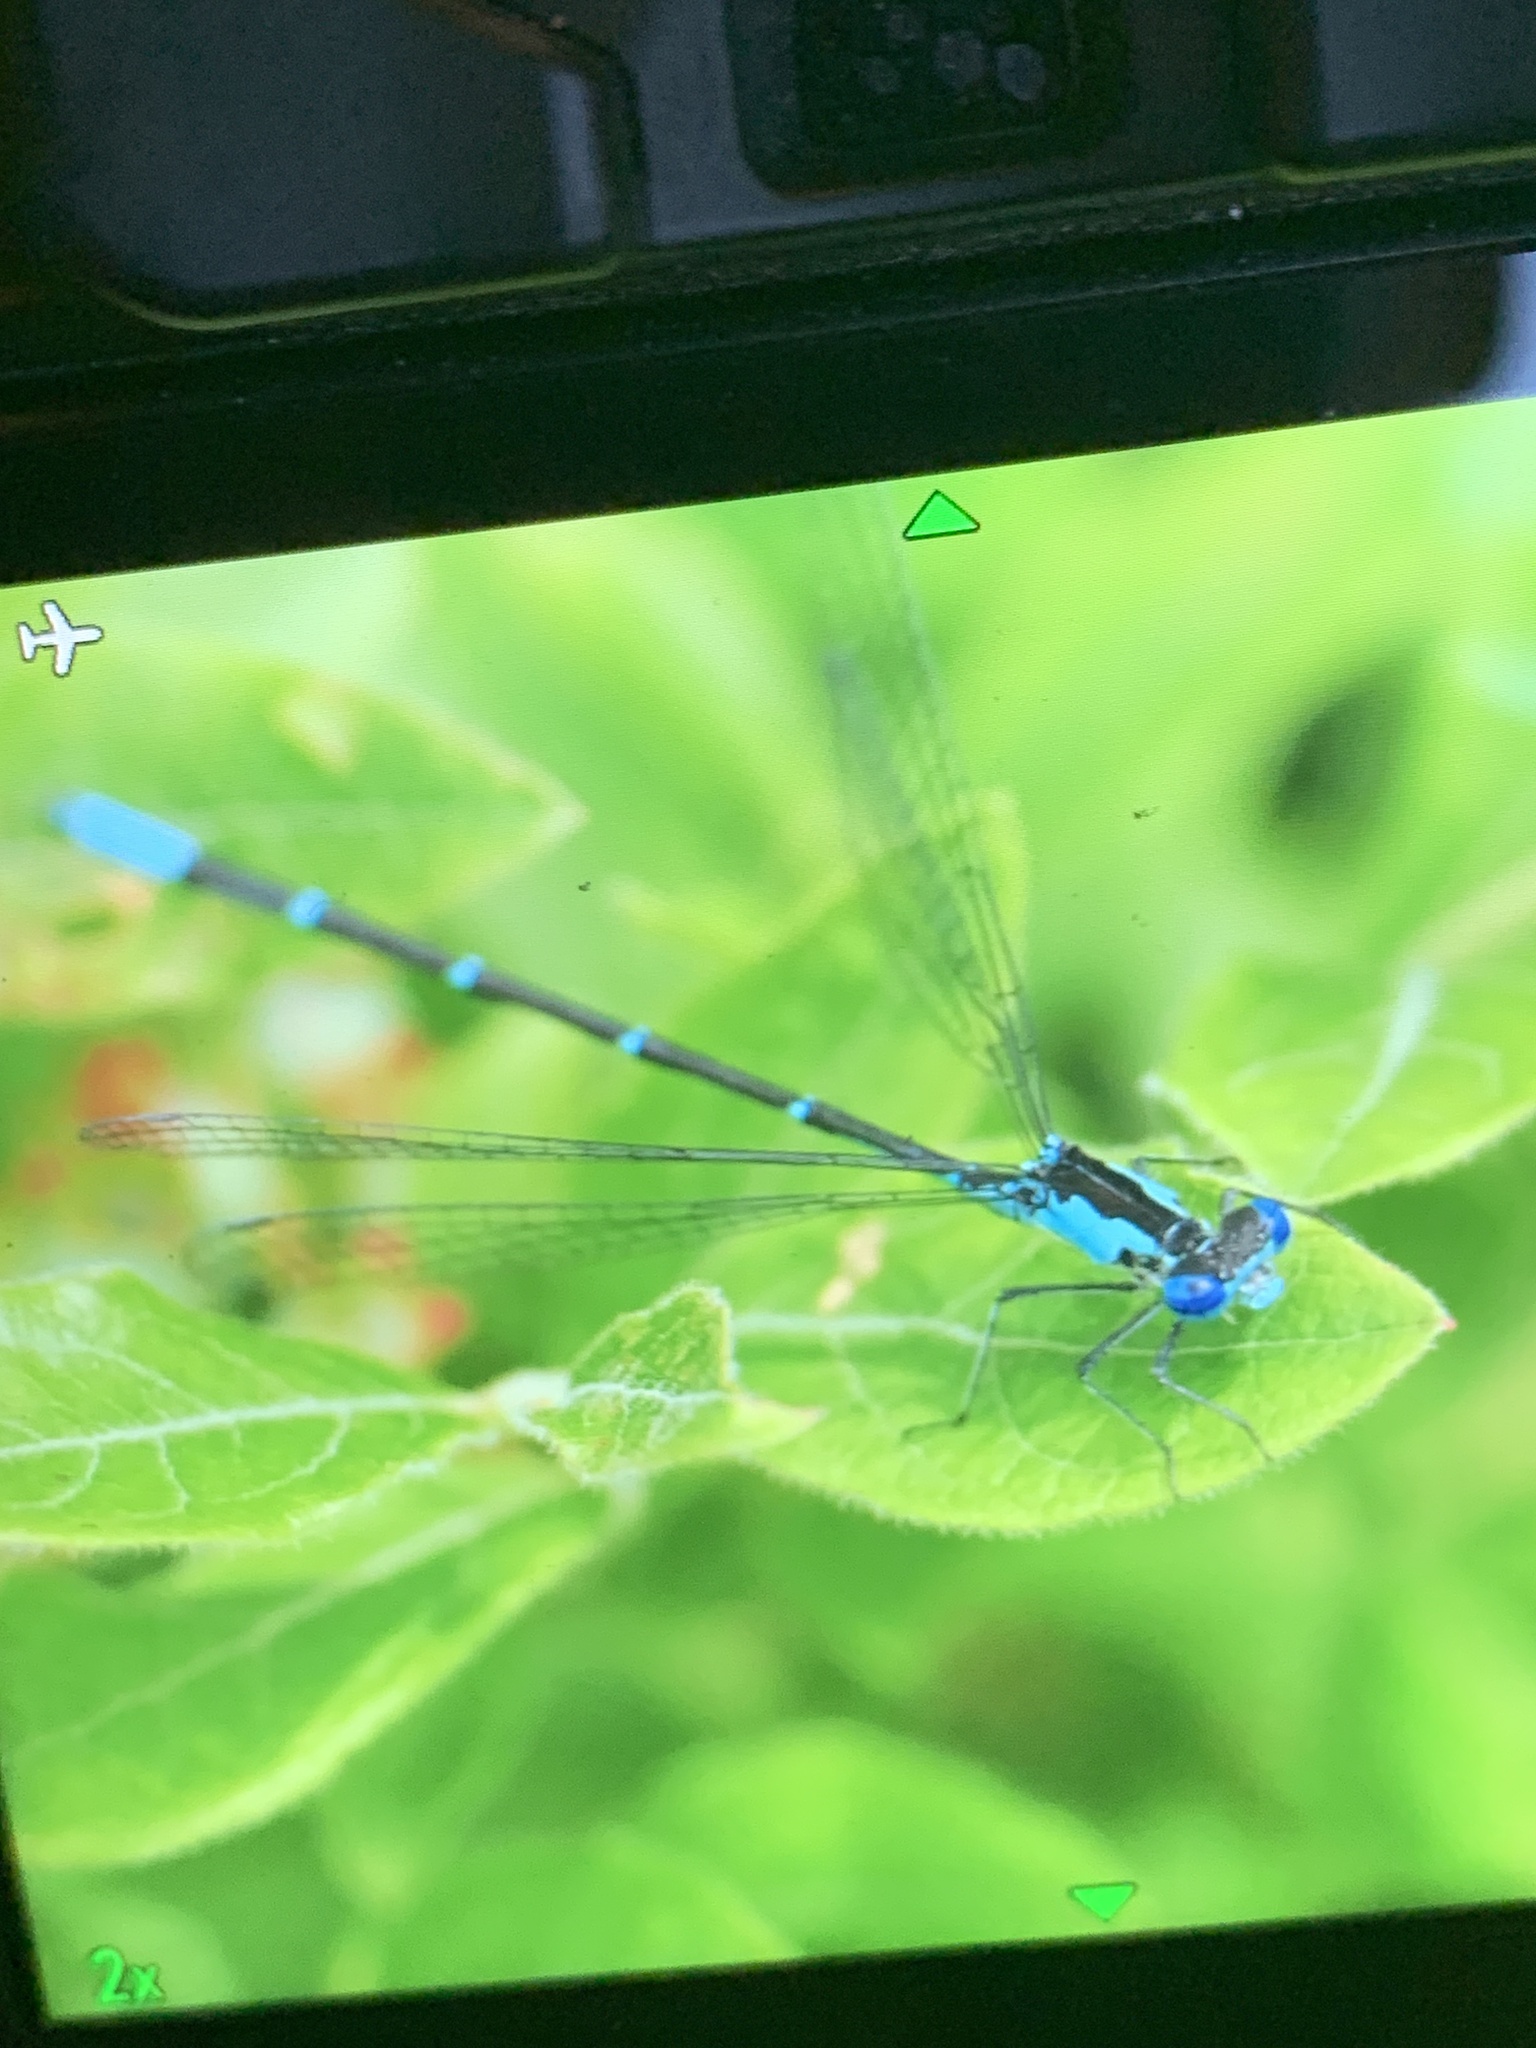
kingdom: Animalia
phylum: Arthropoda
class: Insecta
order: Odonata
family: Coenagrionidae
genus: Chromagrion
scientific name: Chromagrion conditum
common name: Aurora damsel
